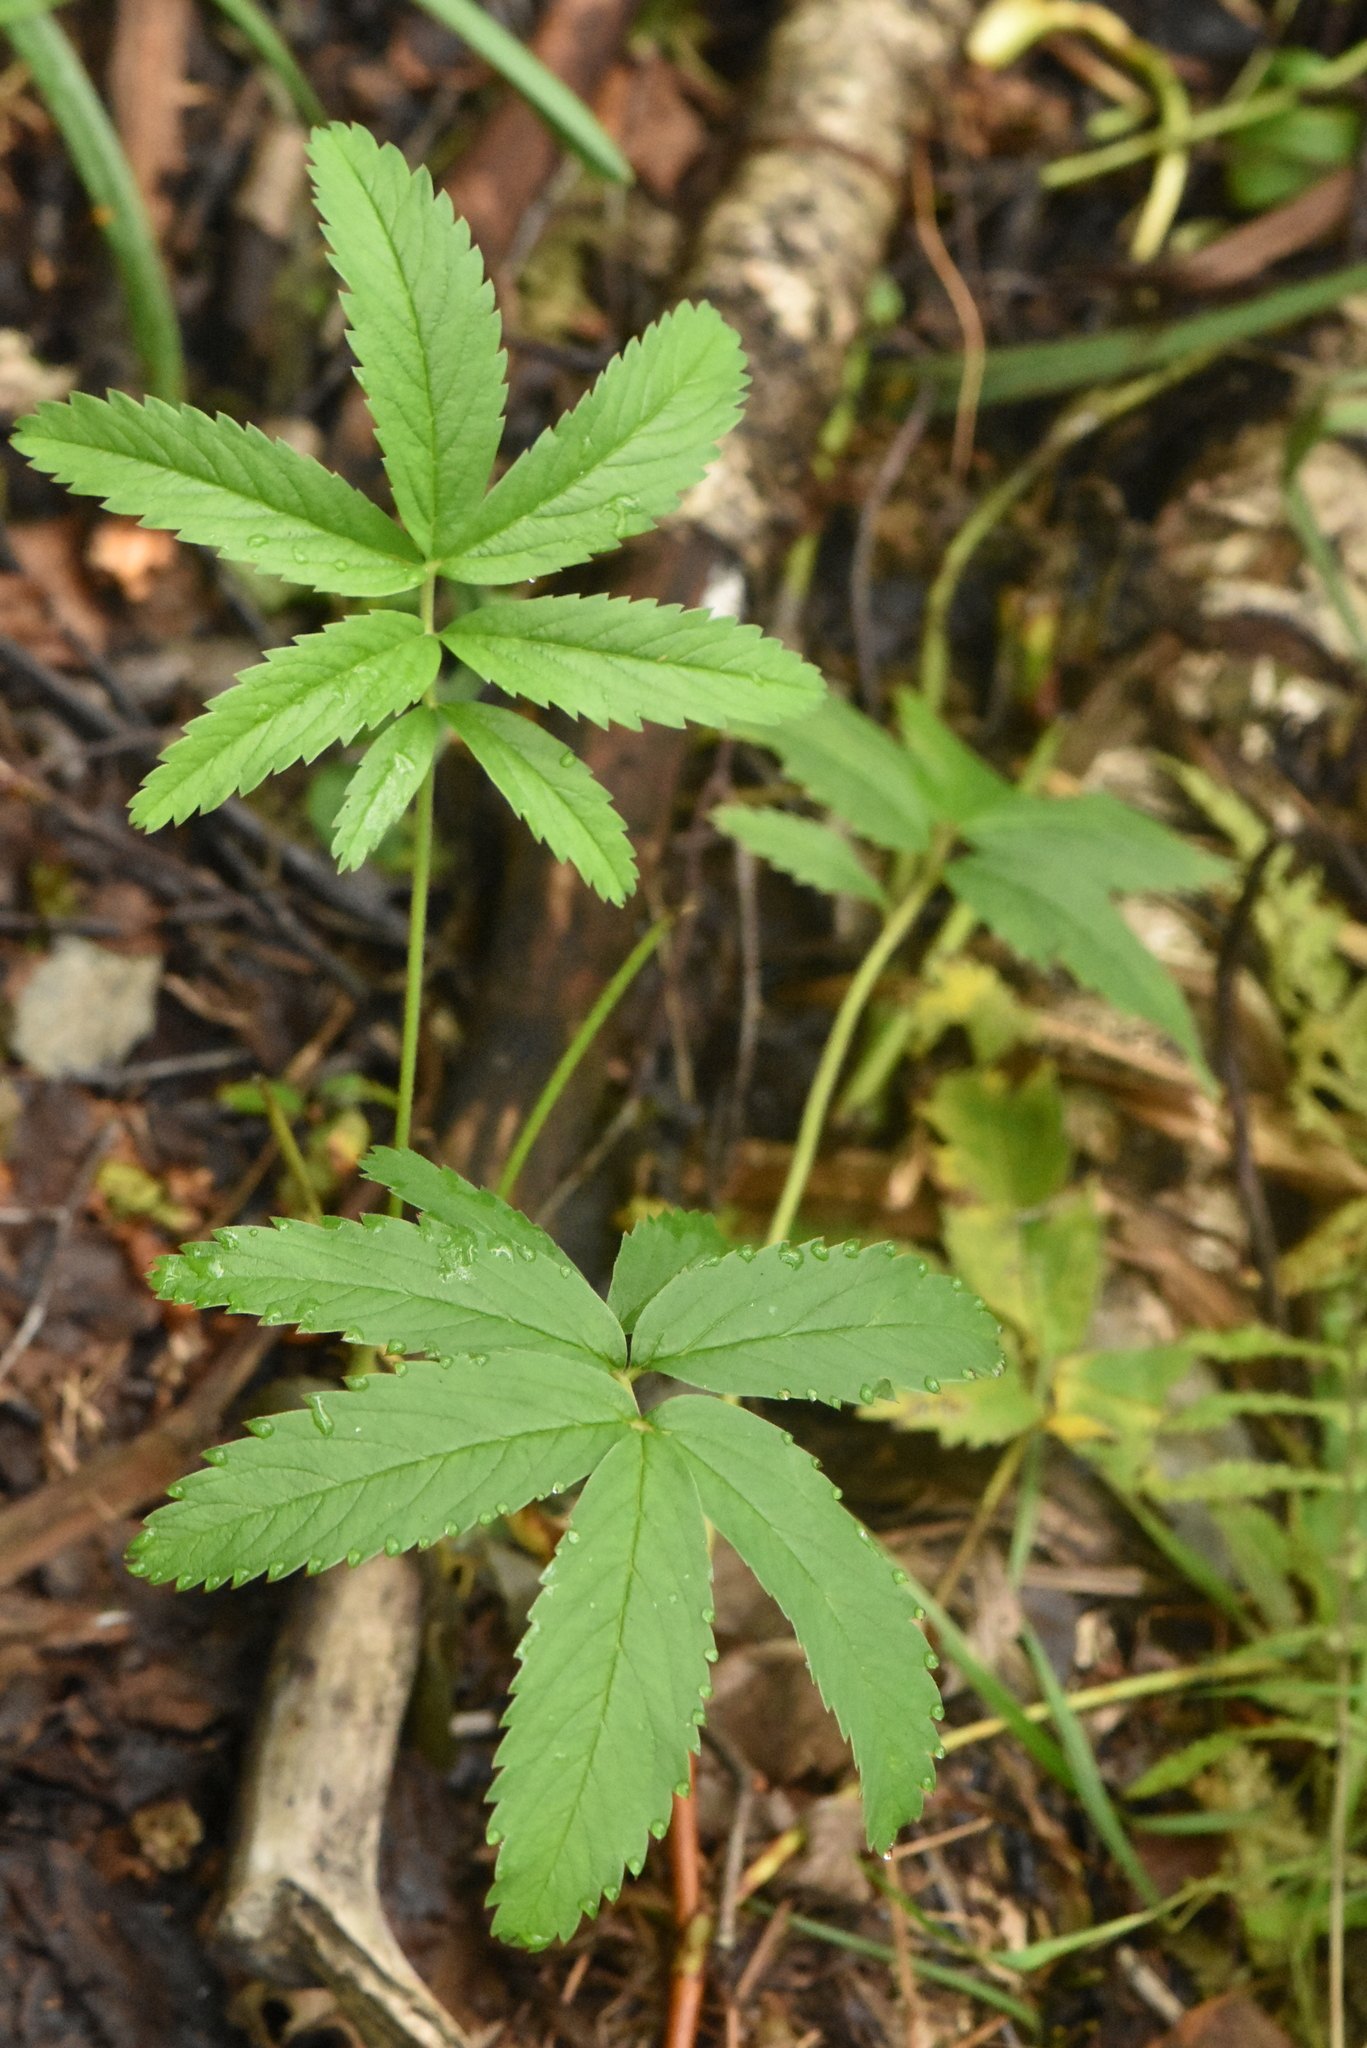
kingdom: Plantae
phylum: Tracheophyta
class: Magnoliopsida
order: Rosales
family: Rosaceae
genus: Comarum
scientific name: Comarum palustre
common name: Marsh cinquefoil
